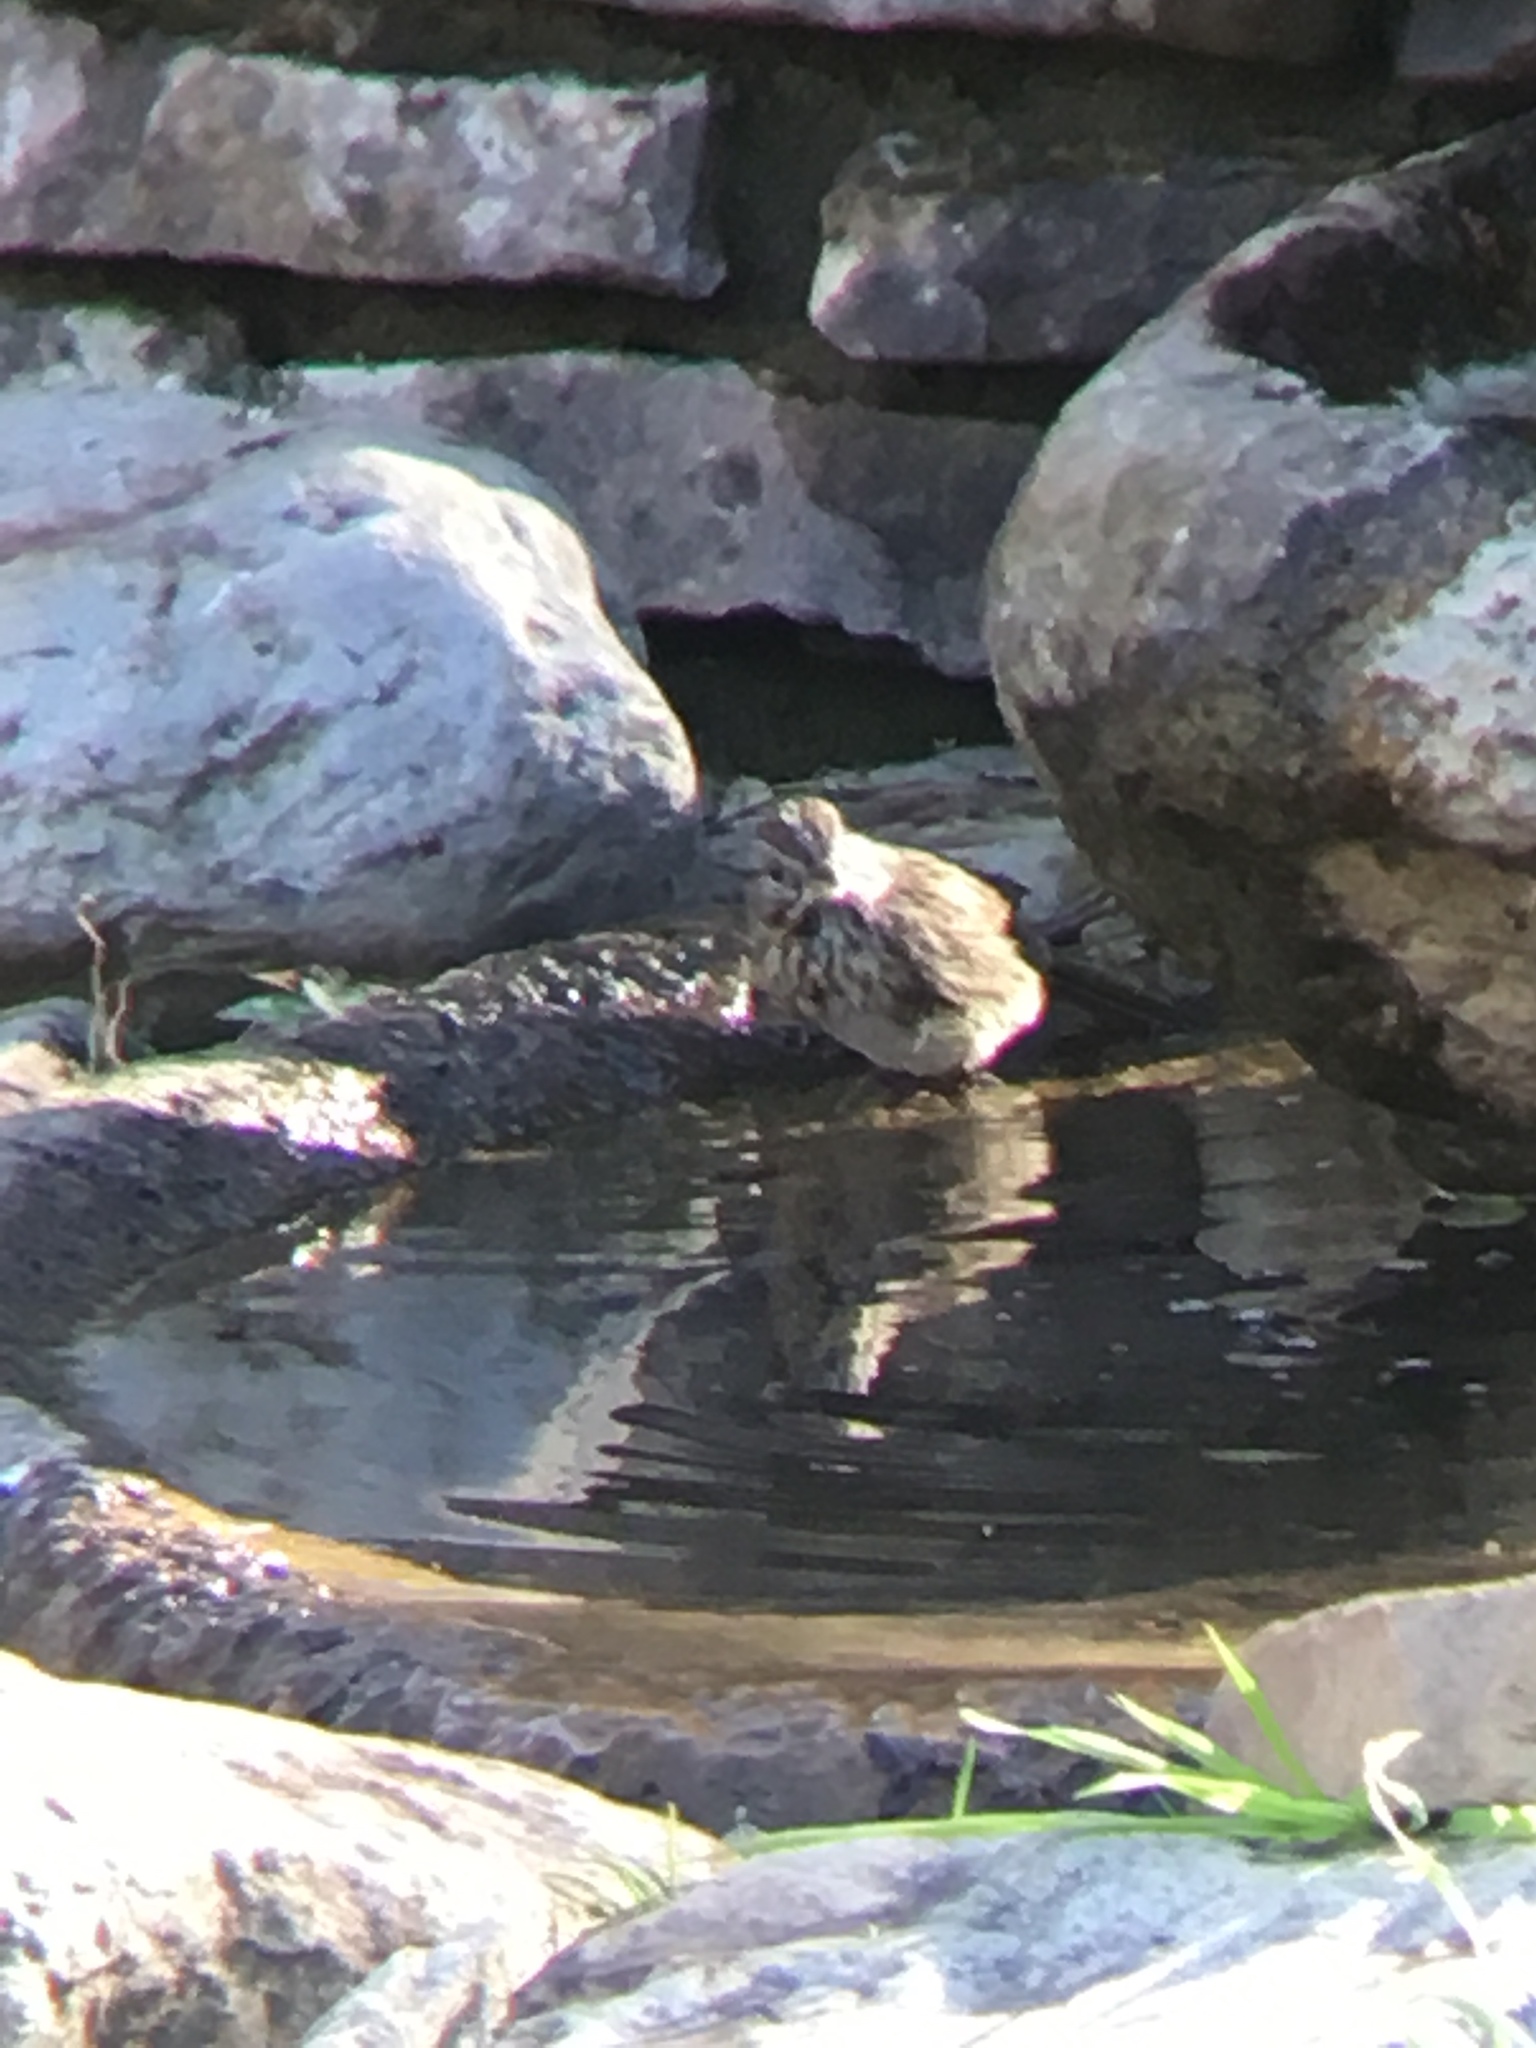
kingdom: Animalia
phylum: Chordata
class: Aves
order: Passeriformes
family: Passerellidae
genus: Melospiza
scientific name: Melospiza melodia
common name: Song sparrow
